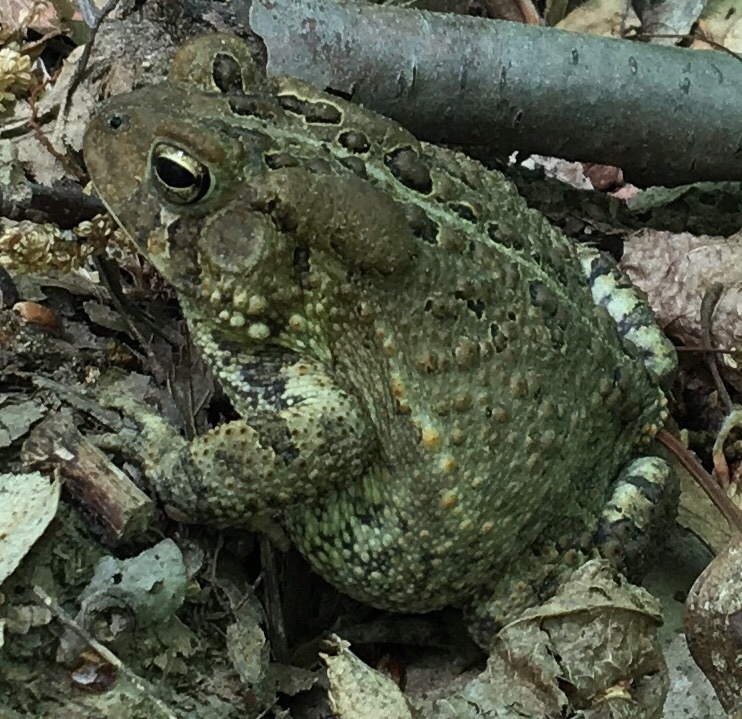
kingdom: Animalia
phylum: Chordata
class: Amphibia
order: Anura
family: Bufonidae
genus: Anaxyrus
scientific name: Anaxyrus americanus
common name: American toad
